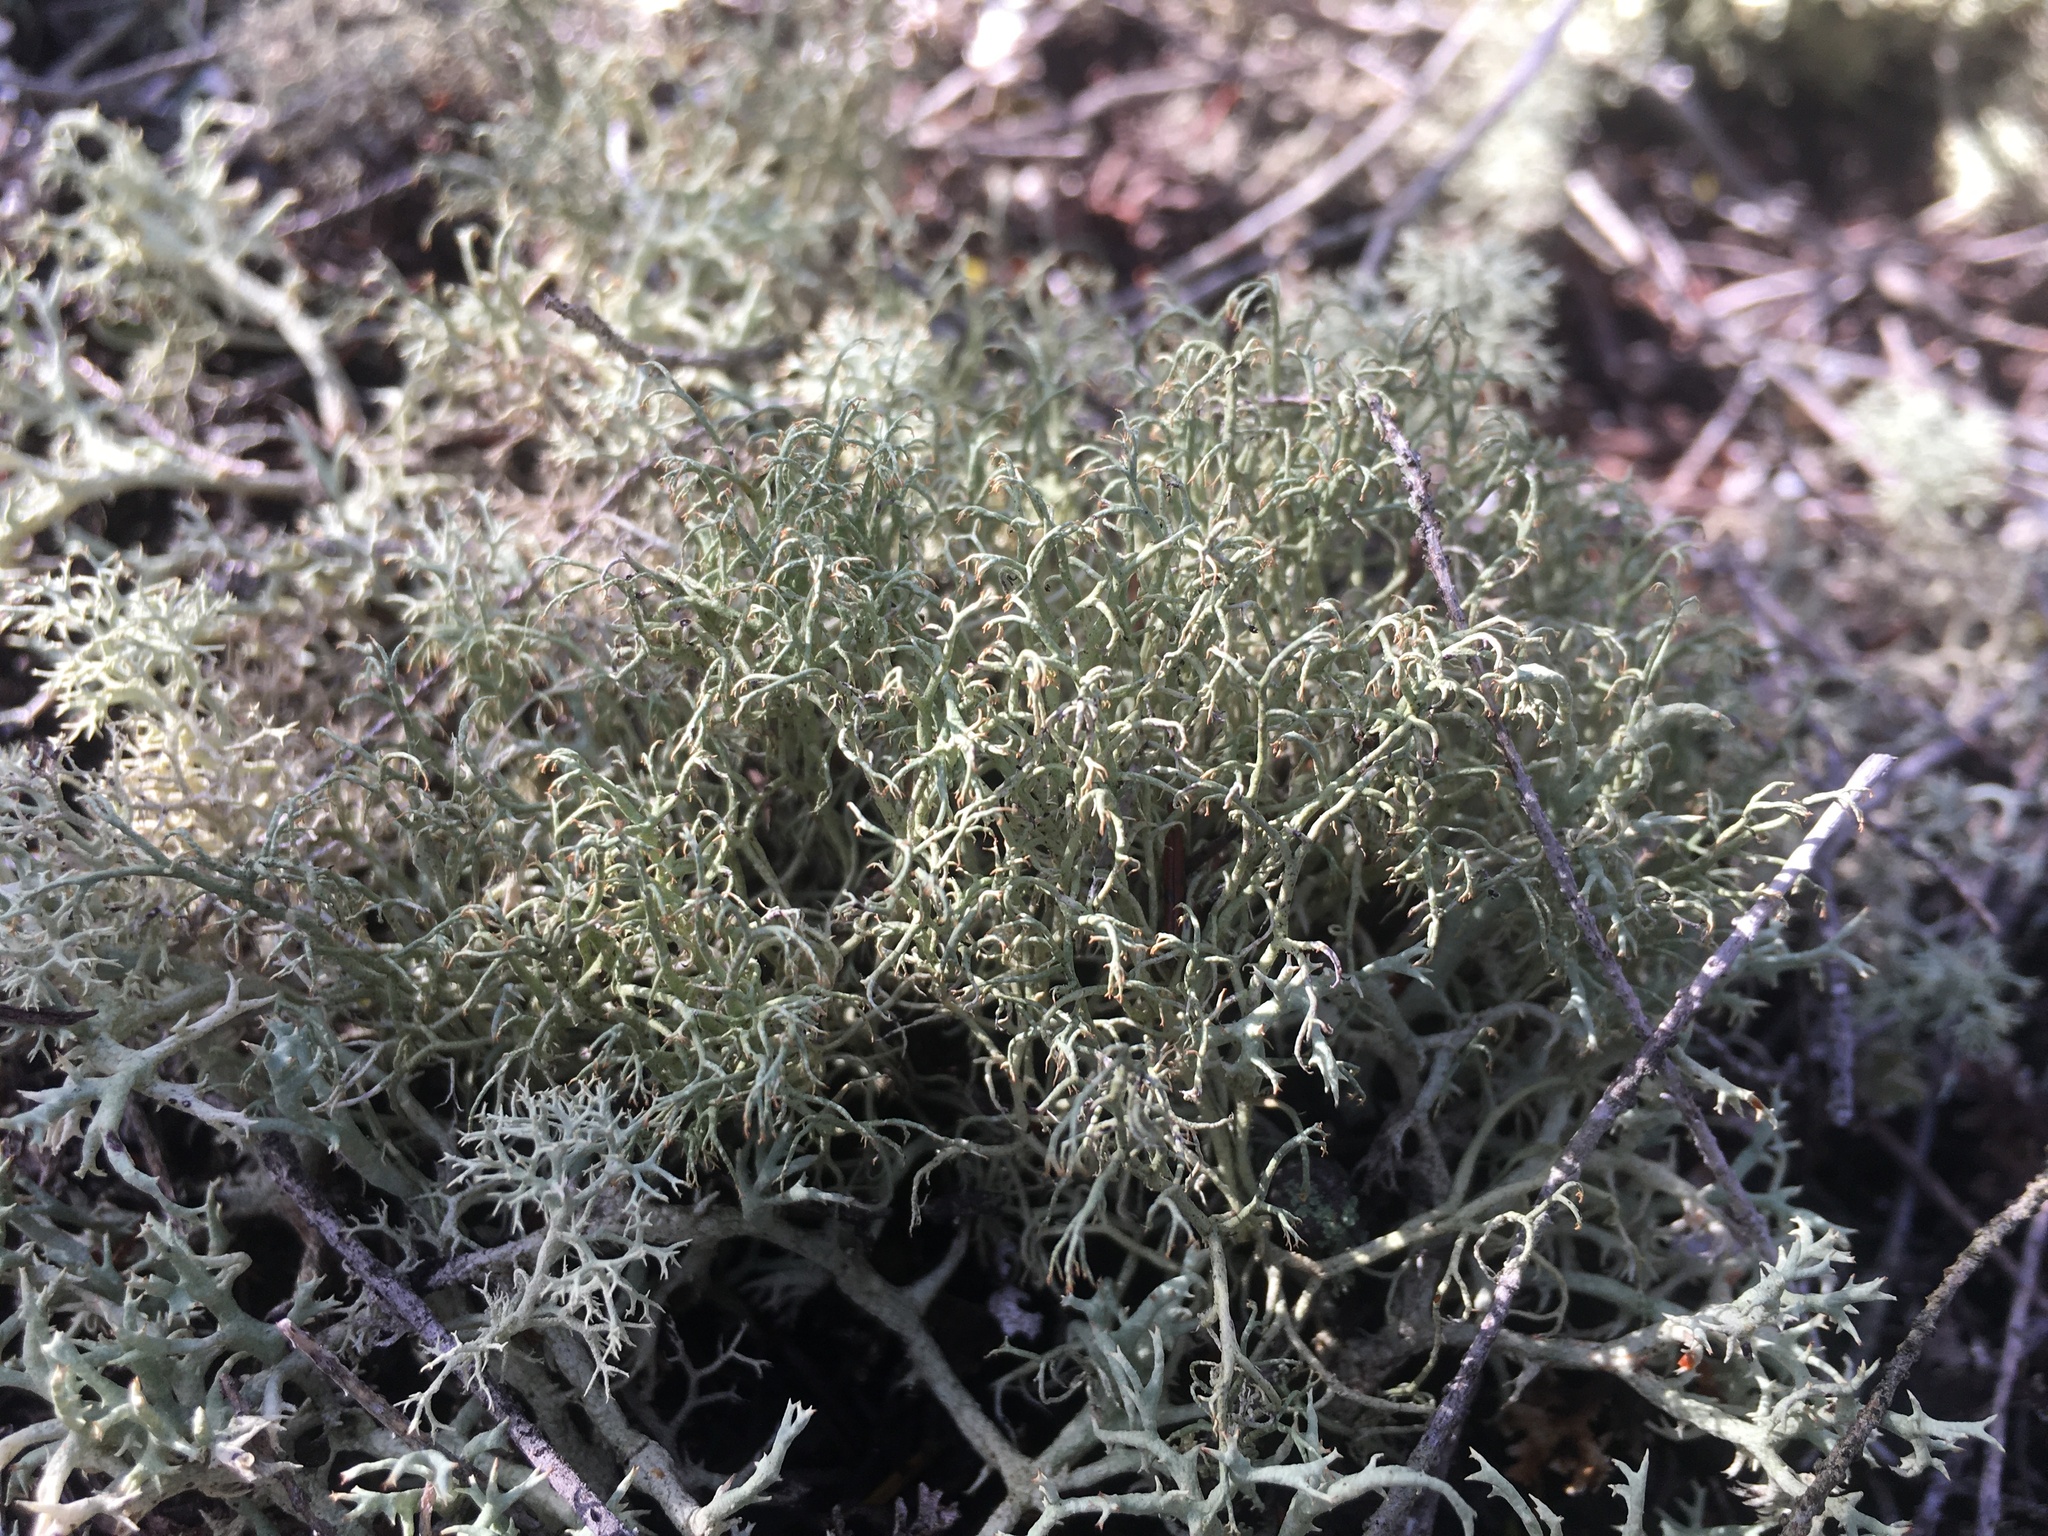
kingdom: Fungi
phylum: Ascomycota
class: Lecanoromycetes
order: Lecanorales
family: Cladoniaceae
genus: Cladonia
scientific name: Cladonia subsetacea
